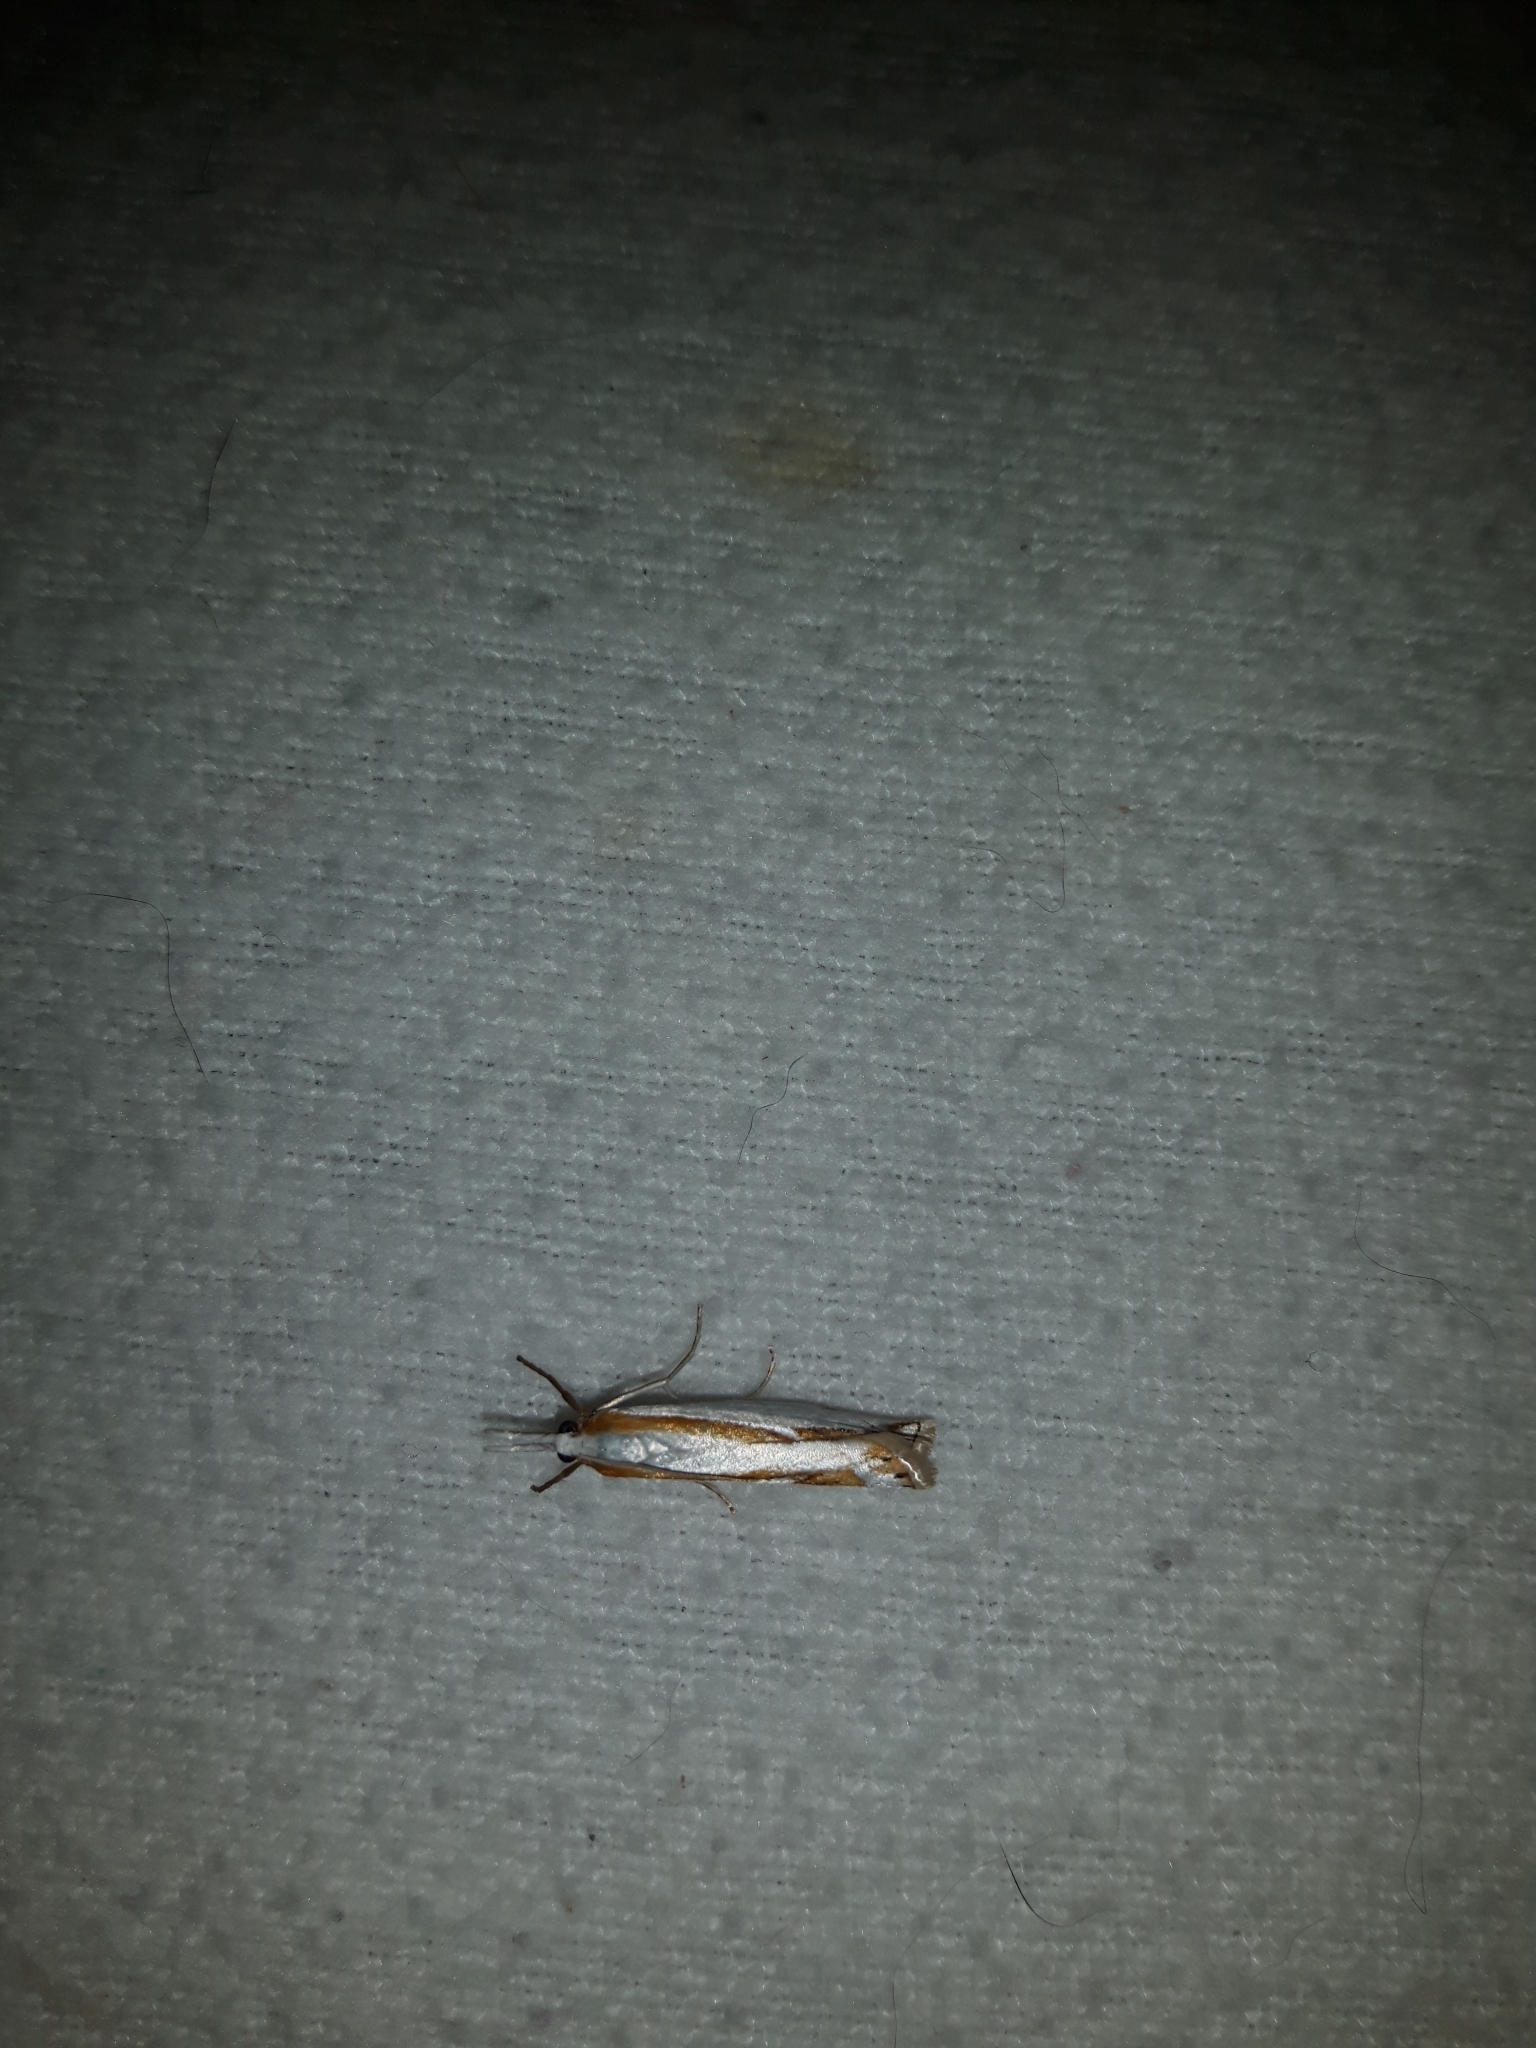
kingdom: Animalia
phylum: Arthropoda
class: Insecta
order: Lepidoptera
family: Crambidae
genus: Crambus
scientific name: Crambus girardellus
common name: Girard's grass-veneer
